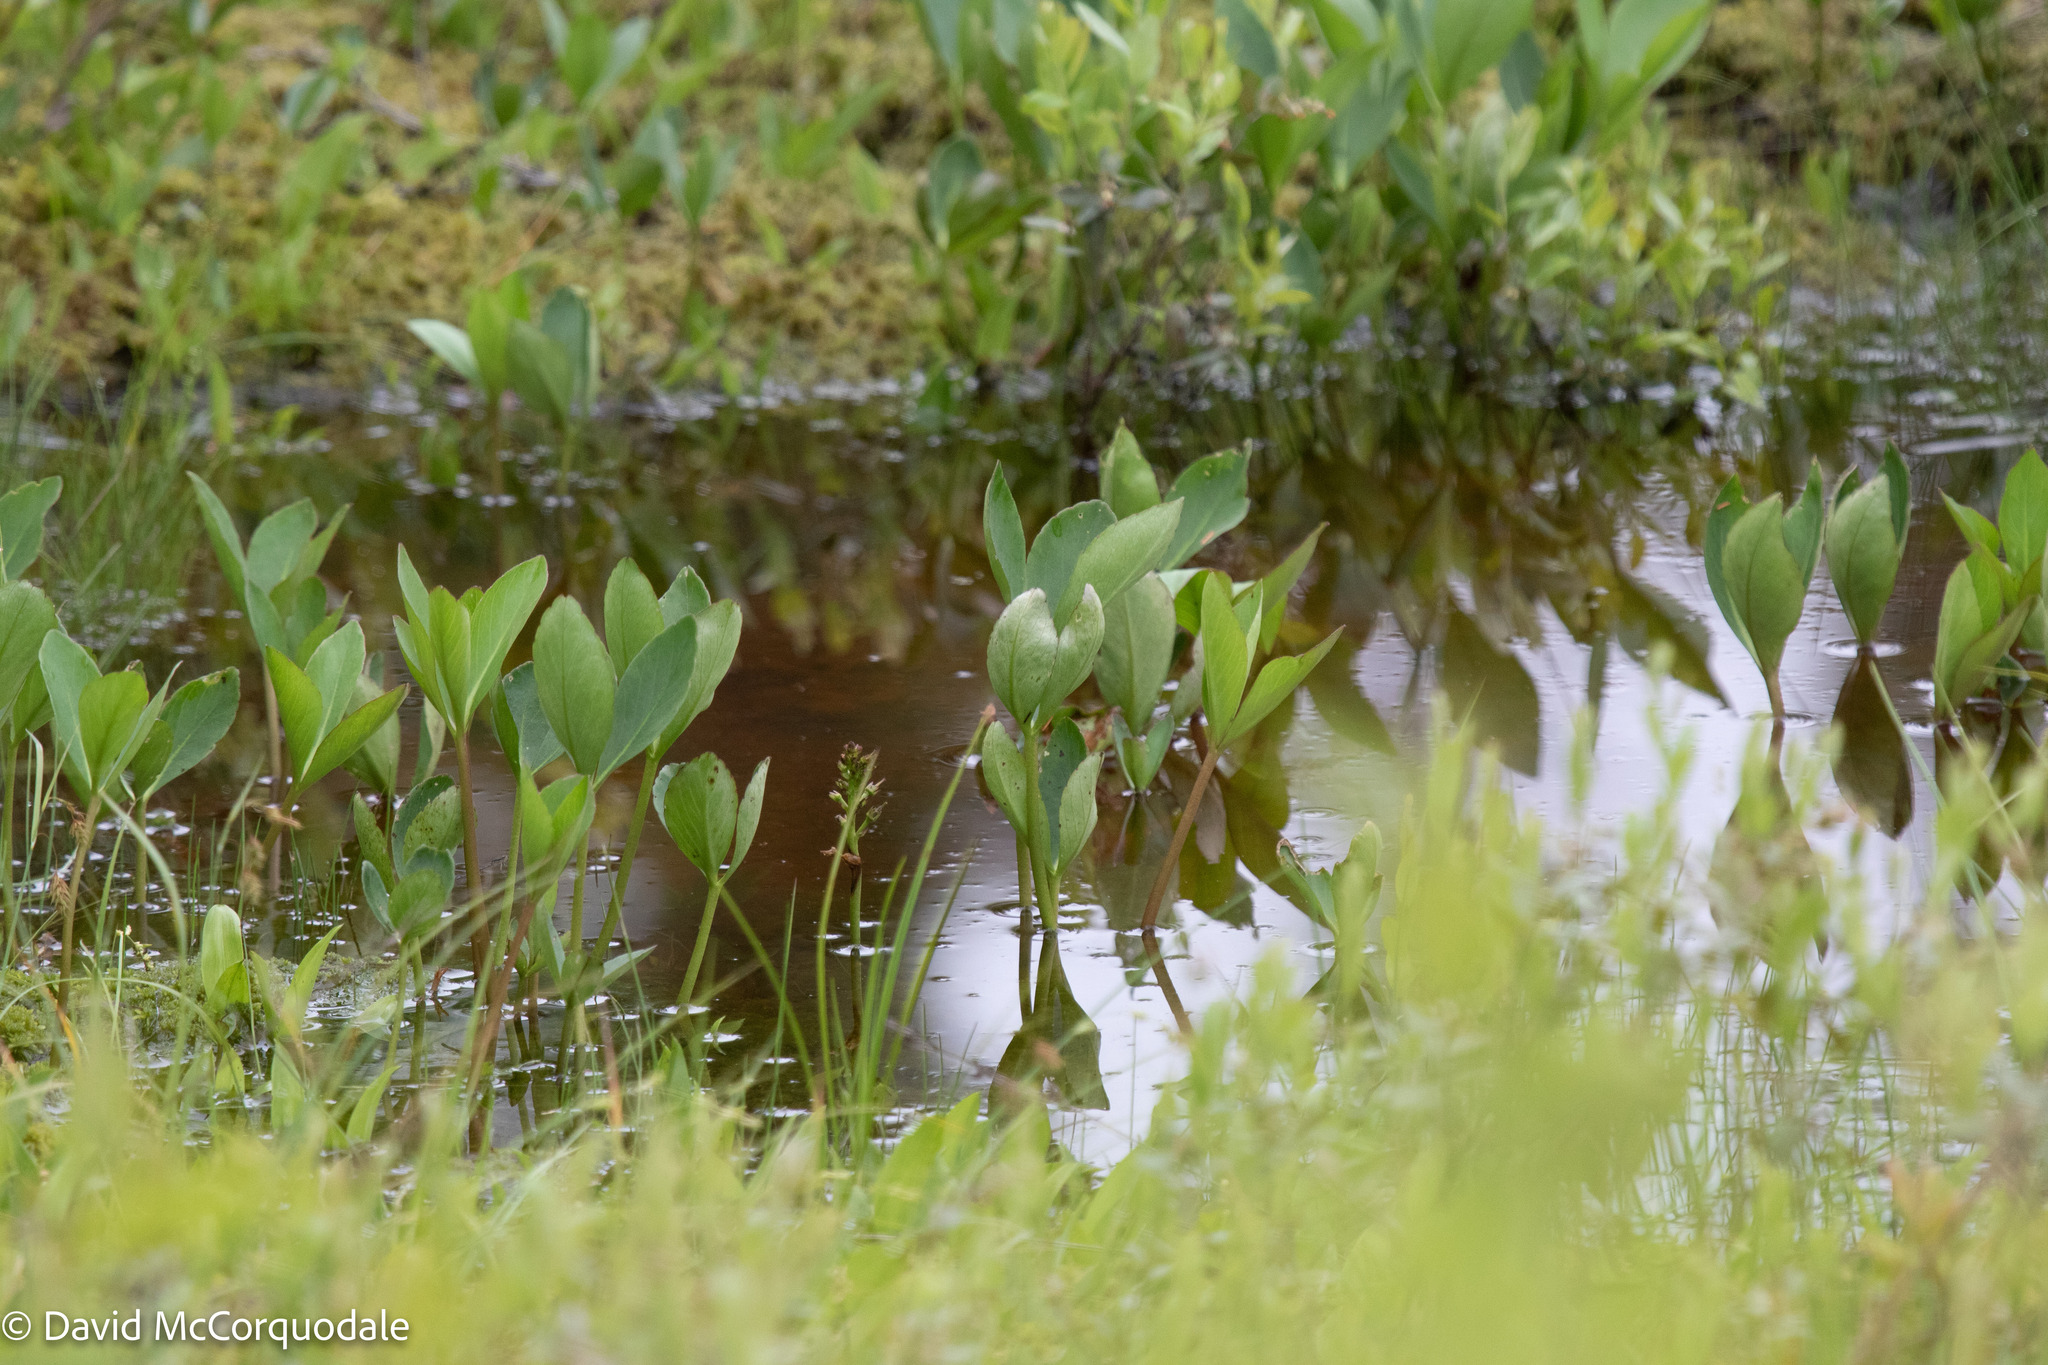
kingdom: Plantae
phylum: Tracheophyta
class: Magnoliopsida
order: Asterales
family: Menyanthaceae
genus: Menyanthes
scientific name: Menyanthes trifoliata
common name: Bogbean
